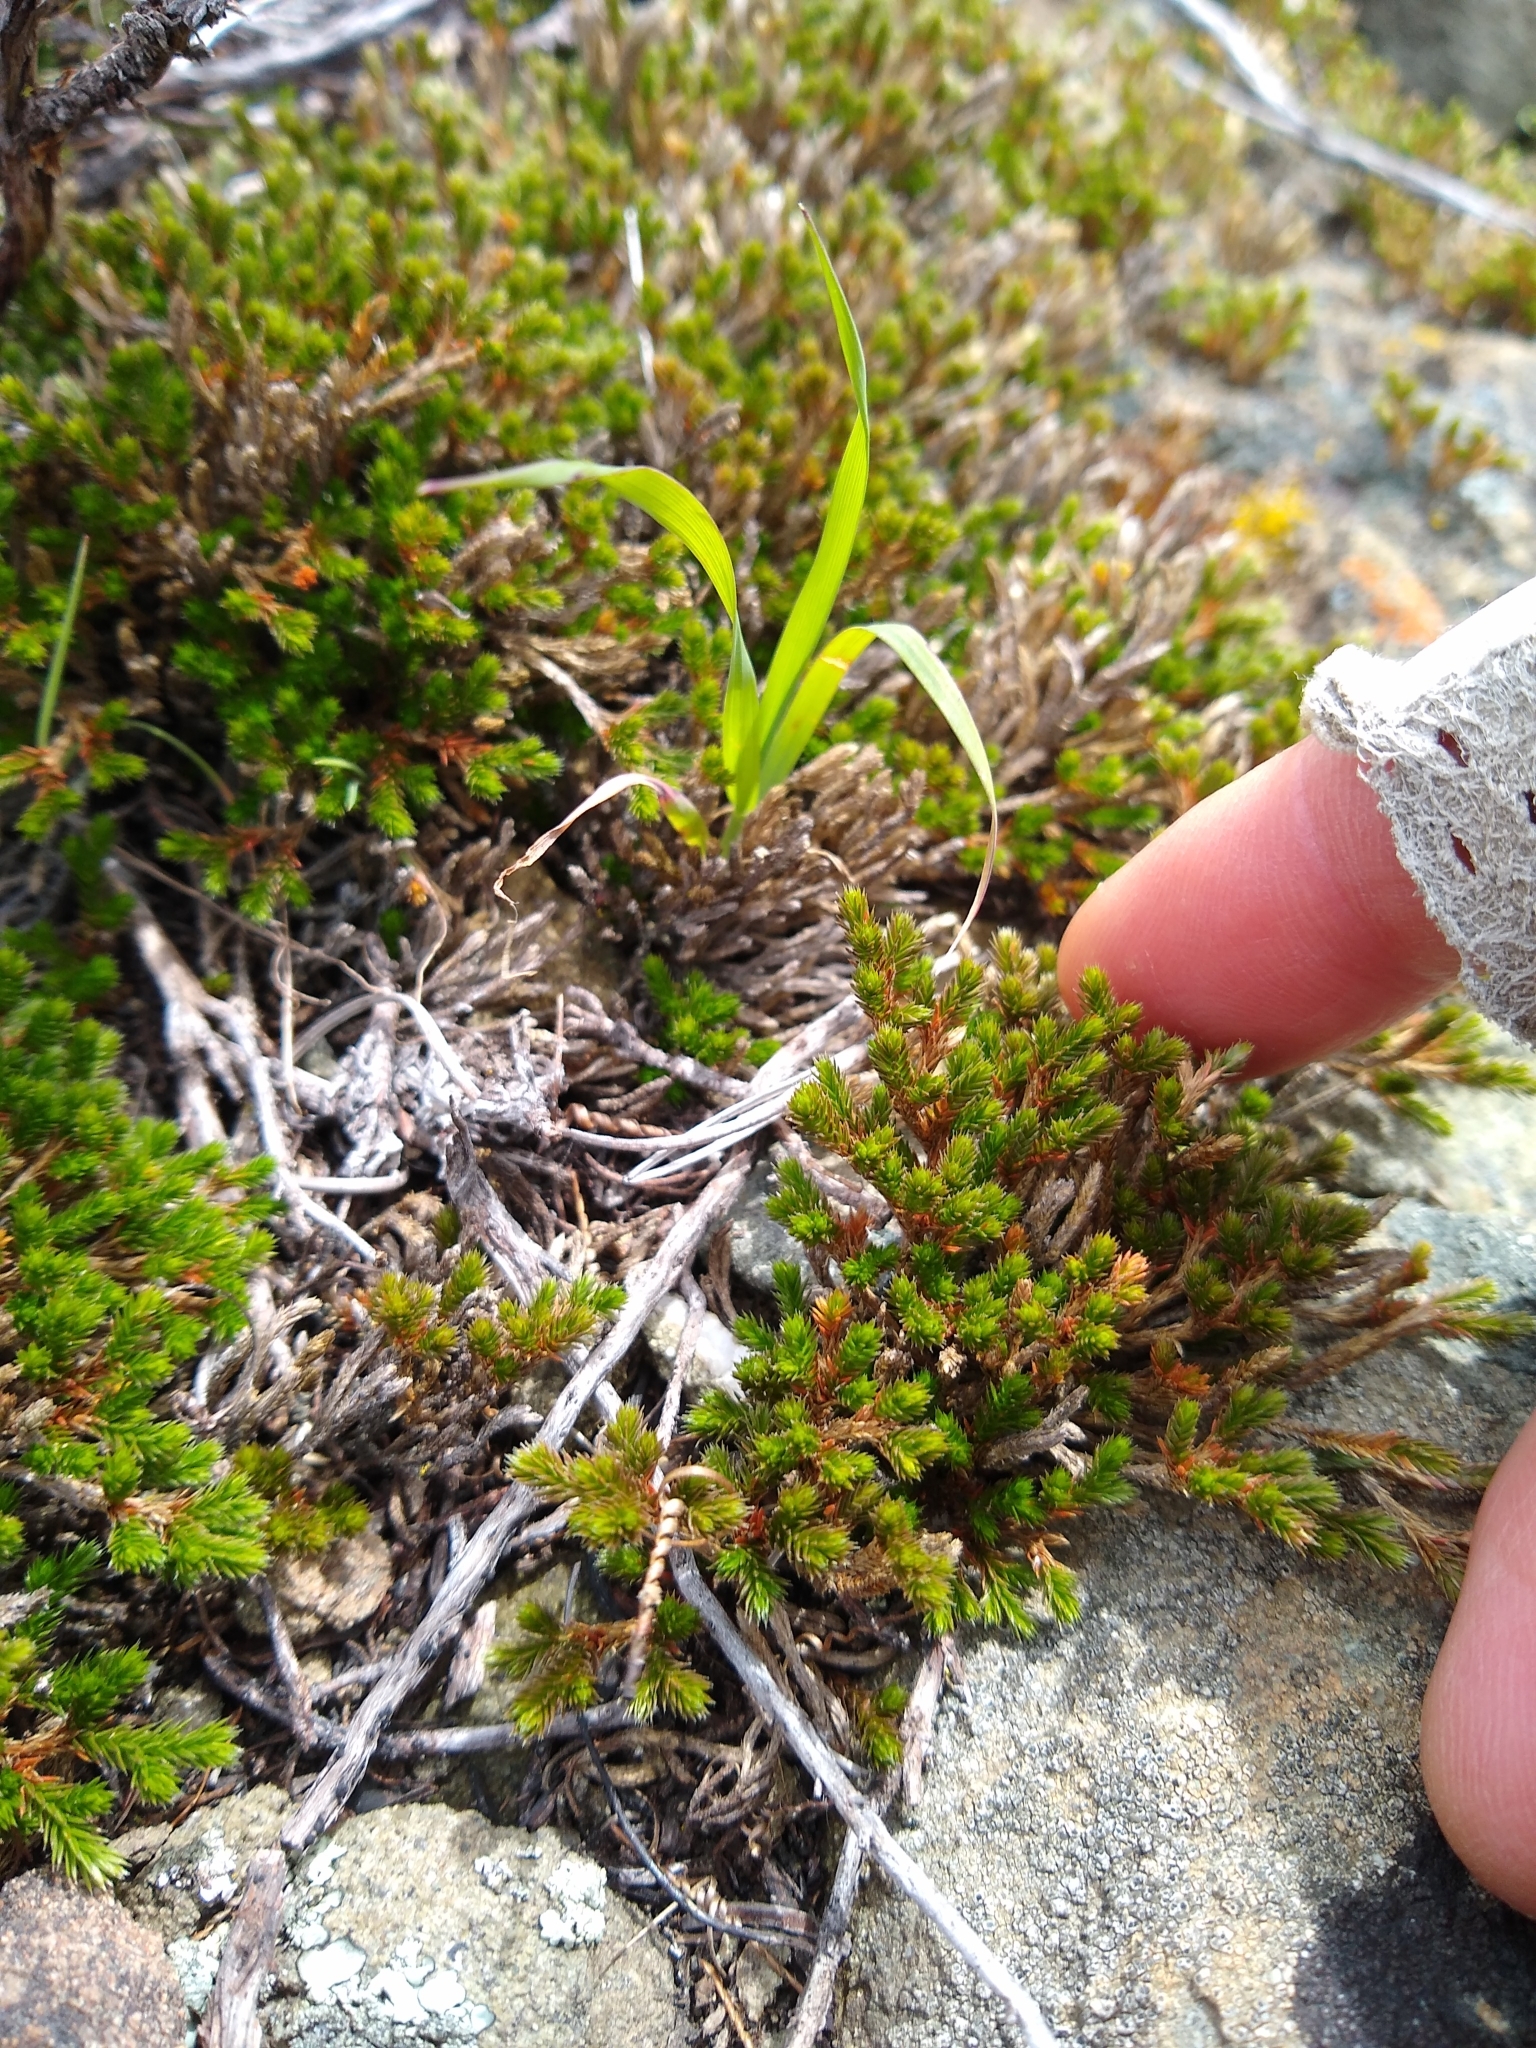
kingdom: Plantae
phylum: Tracheophyta
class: Lycopodiopsida
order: Selaginellales
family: Selaginellaceae
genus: Selaginella
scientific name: Selaginella bigelovii
